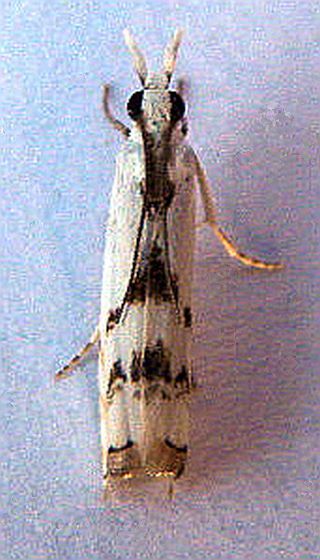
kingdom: Animalia
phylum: Arthropoda
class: Insecta
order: Lepidoptera
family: Crambidae
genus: Microcrambus
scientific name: Microcrambus copelandi
